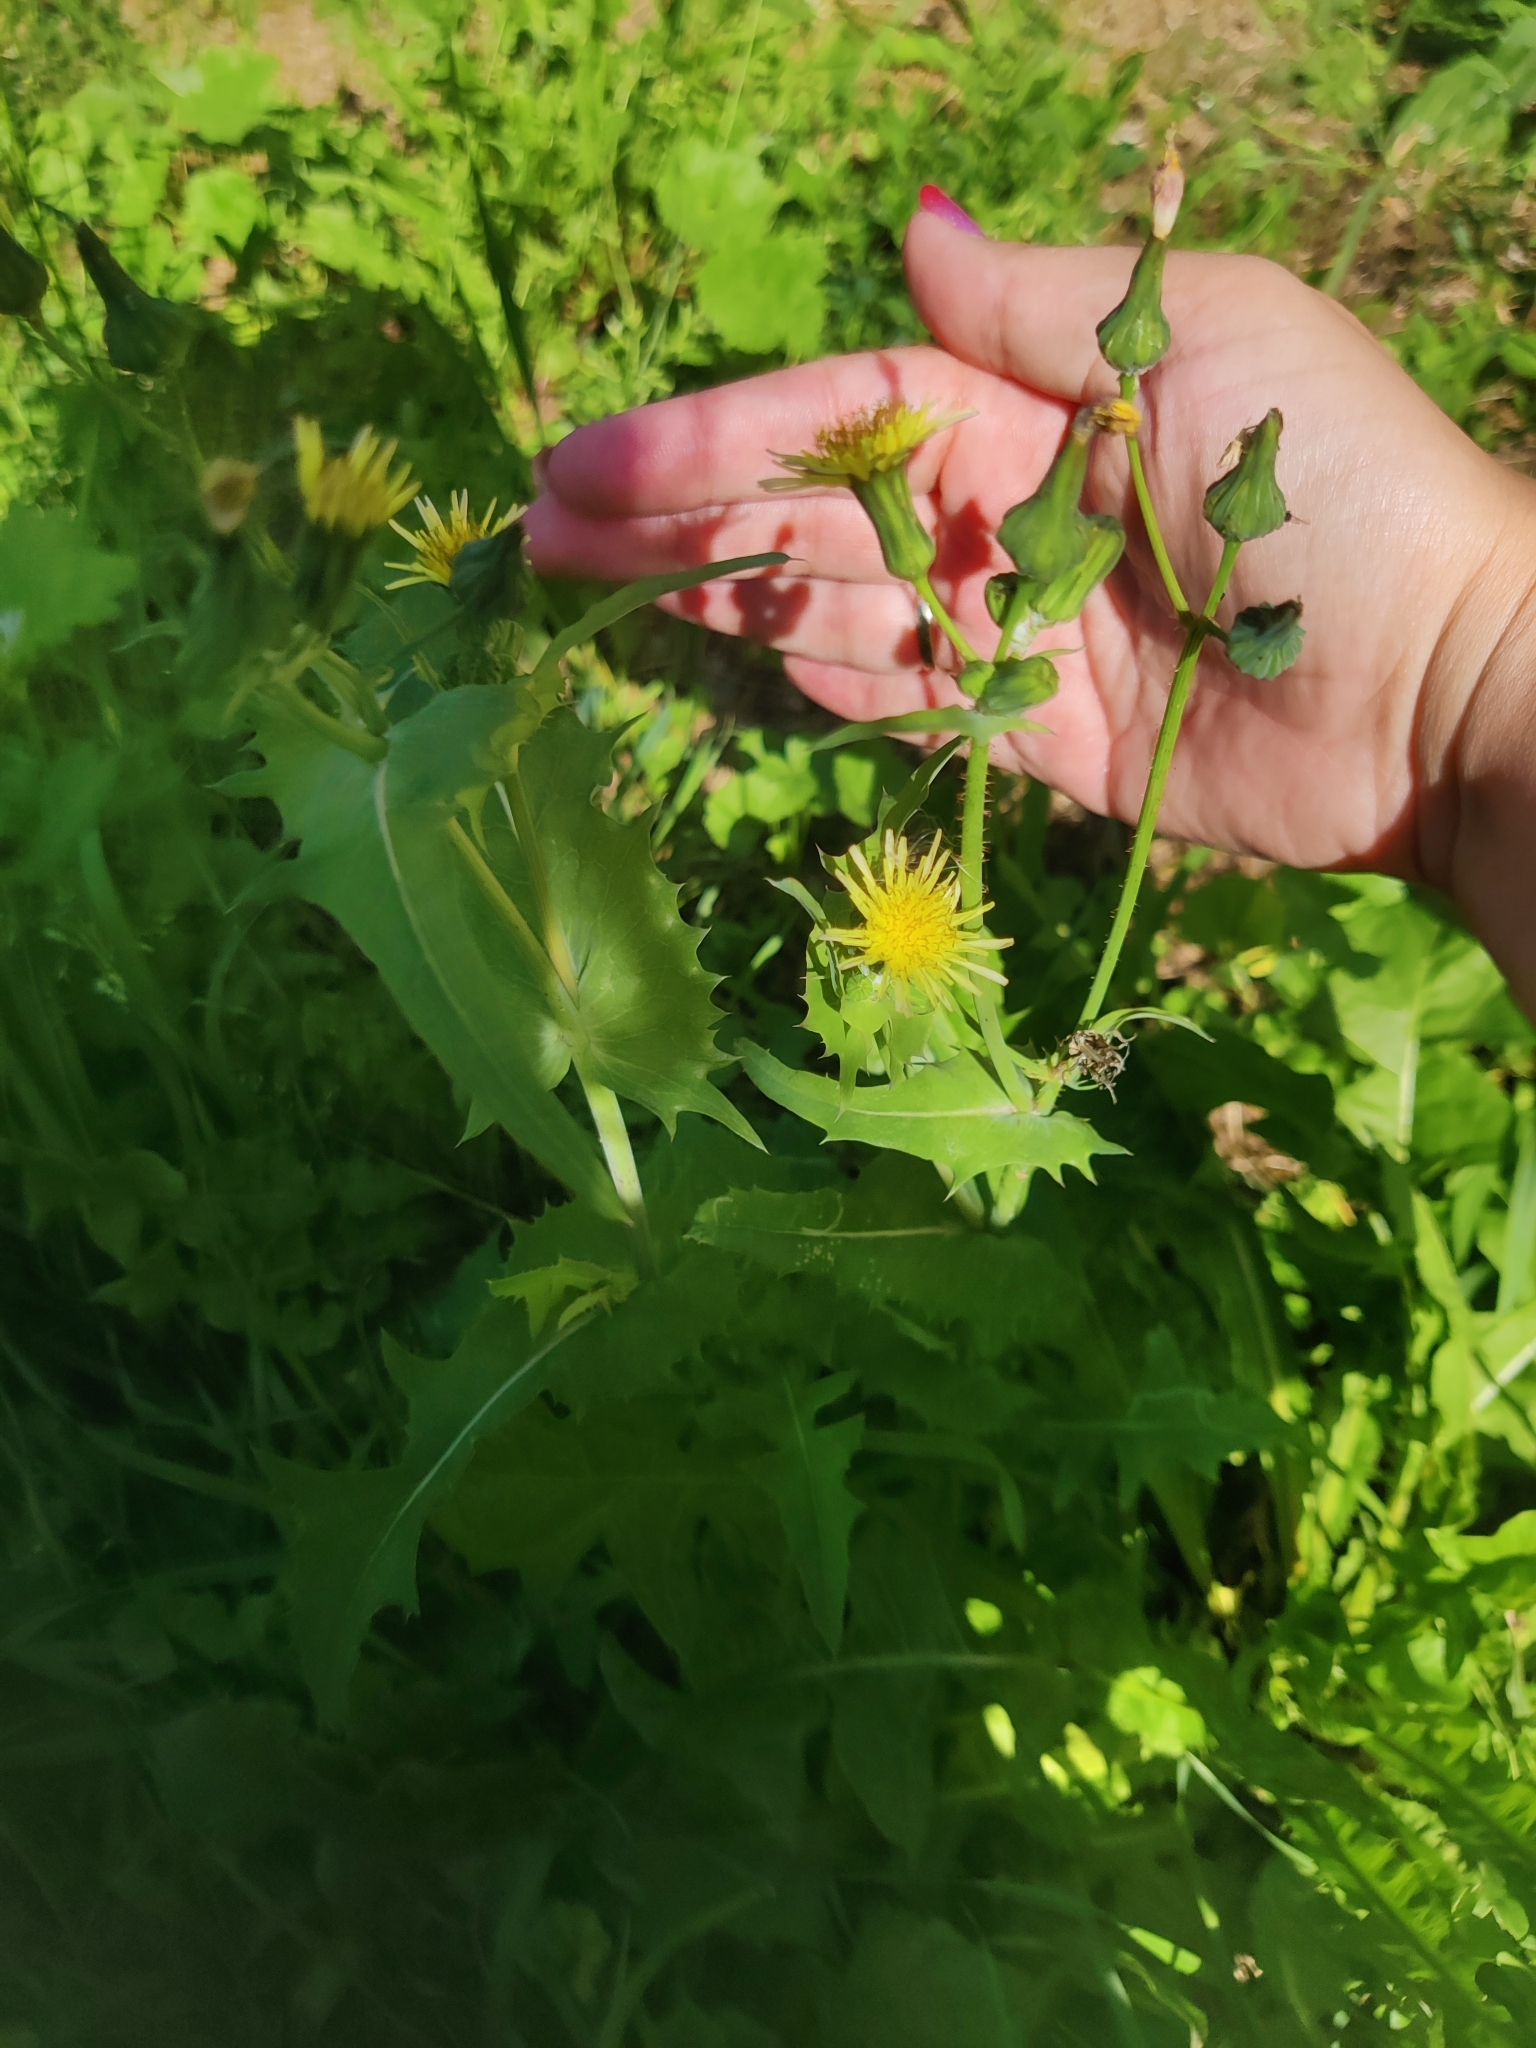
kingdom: Plantae
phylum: Tracheophyta
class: Magnoliopsida
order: Asterales
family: Asteraceae
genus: Sonchus
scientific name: Sonchus oleraceus
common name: Common sowthistle
